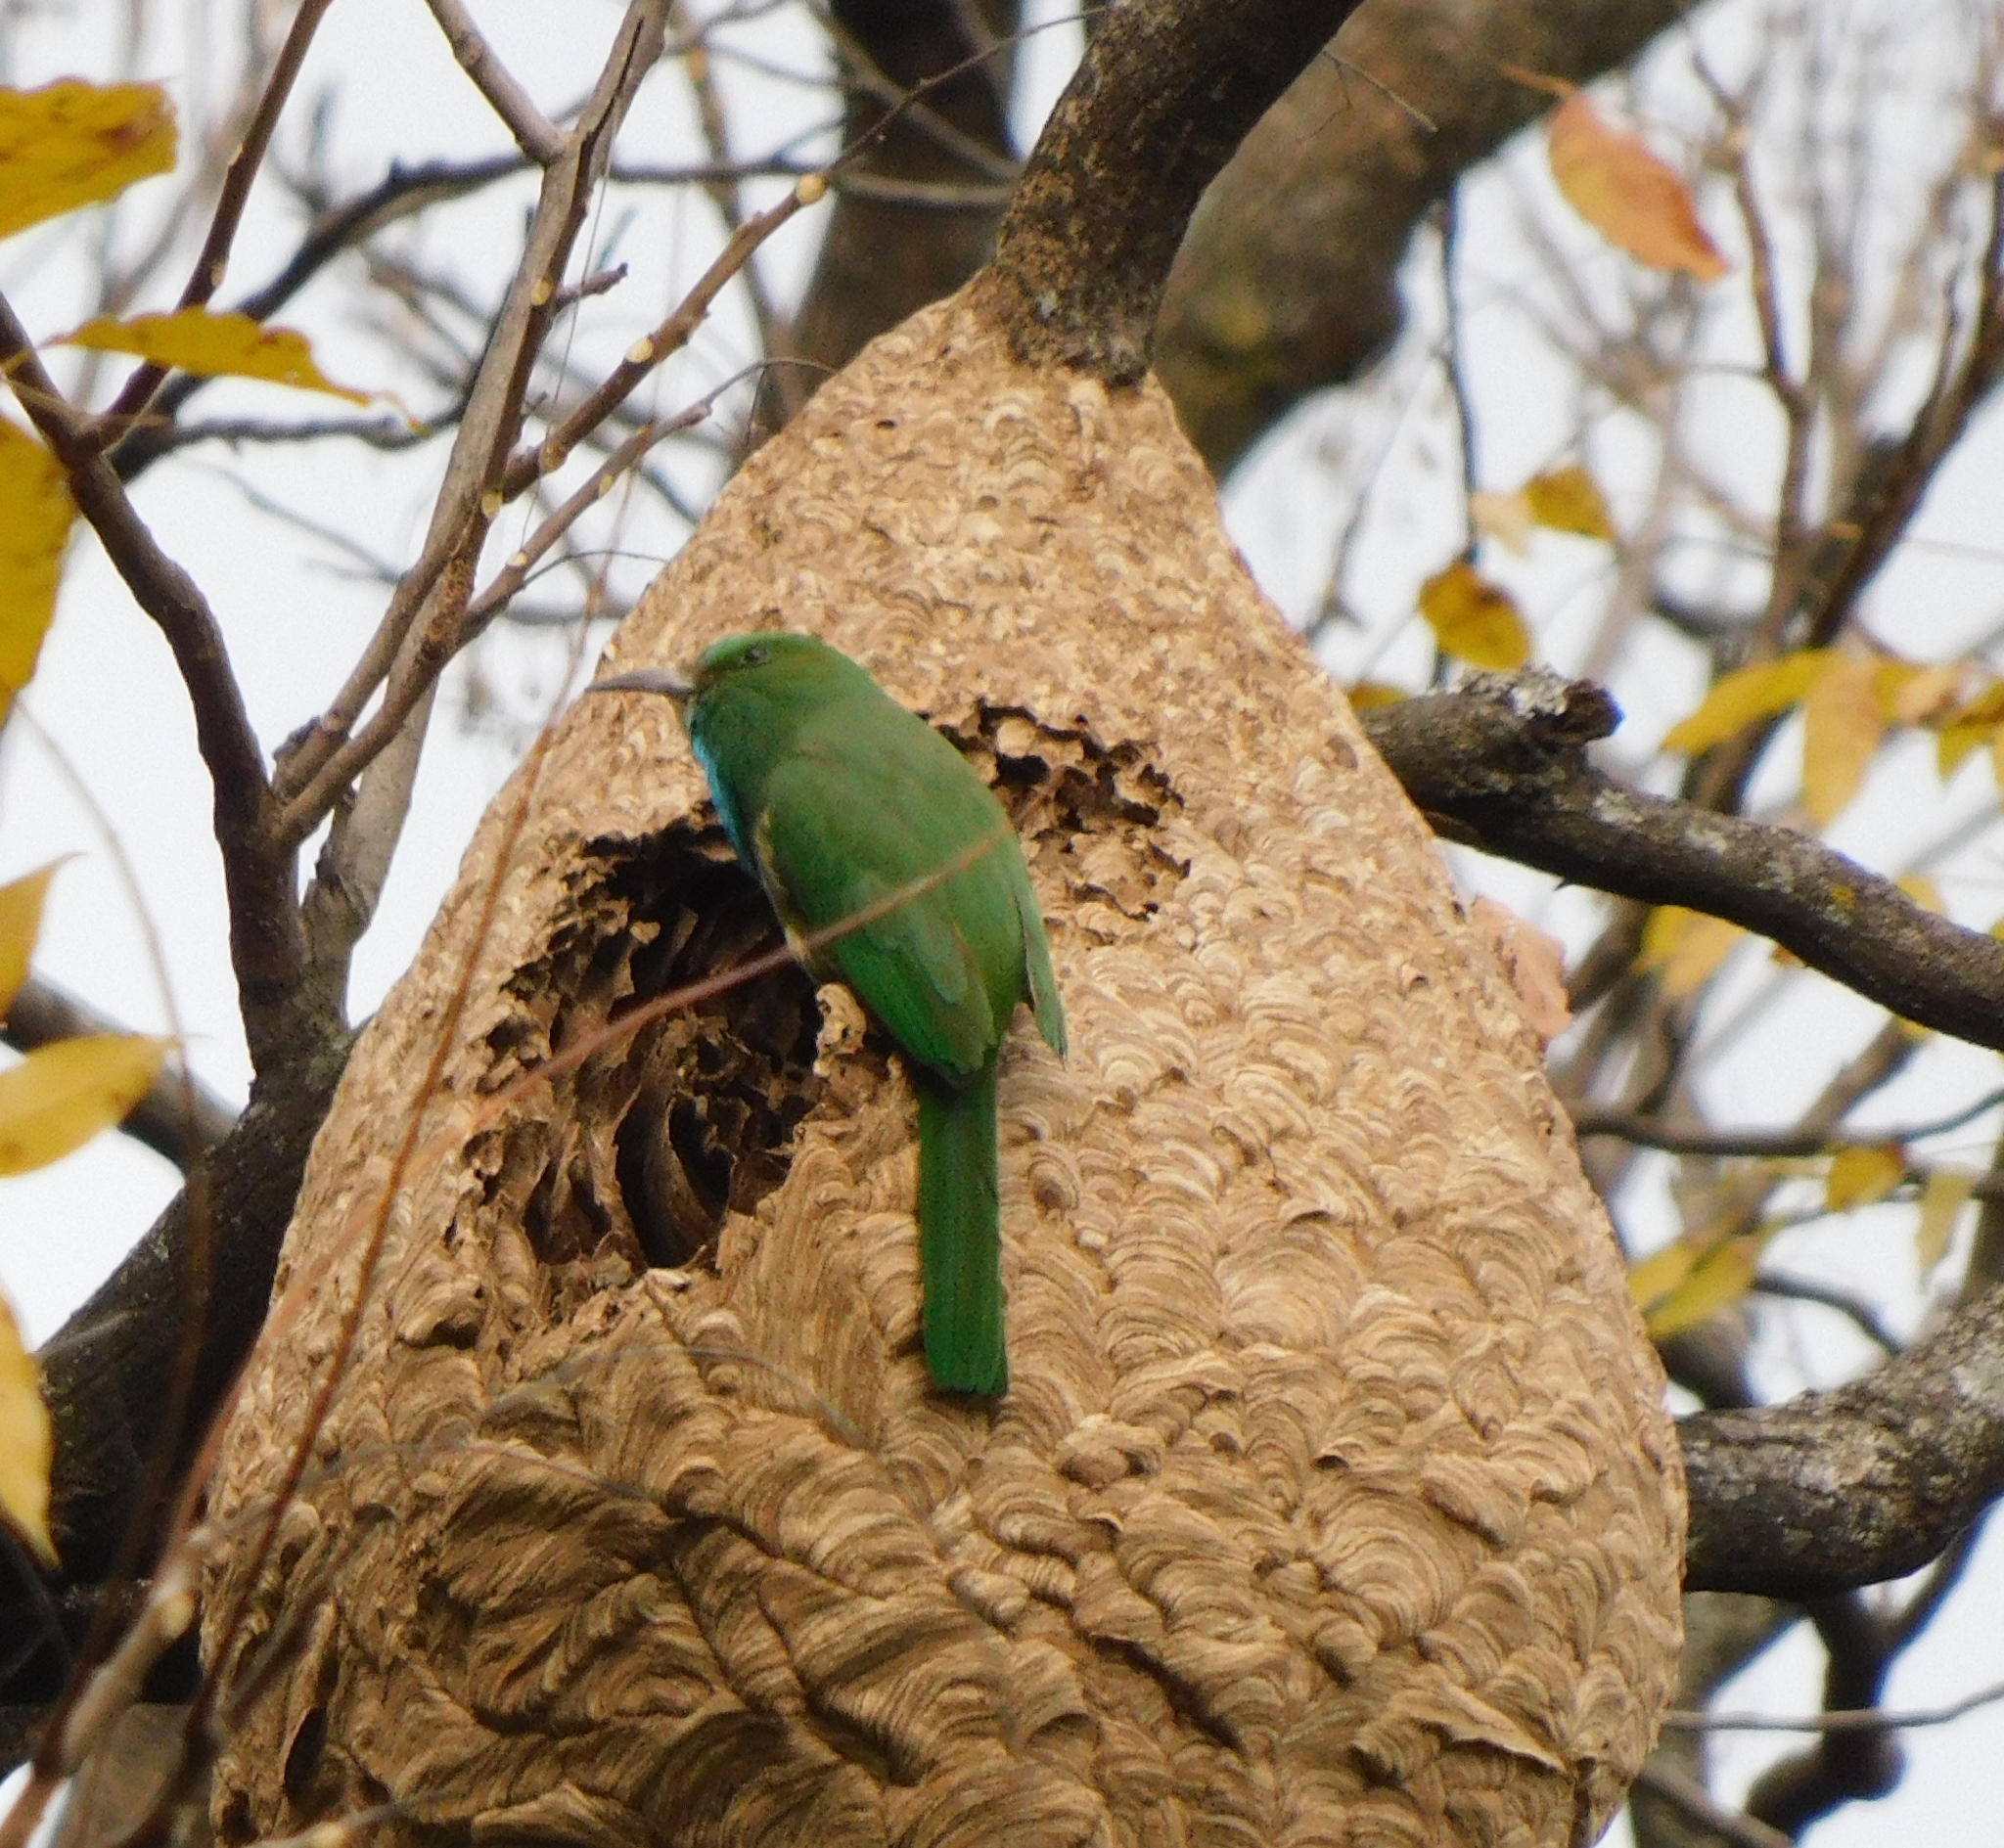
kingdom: Animalia
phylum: Chordata
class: Aves
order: Coraciiformes
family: Meropidae
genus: Nyctyornis
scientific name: Nyctyornis athertoni
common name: Blue-bearded bee-eater
